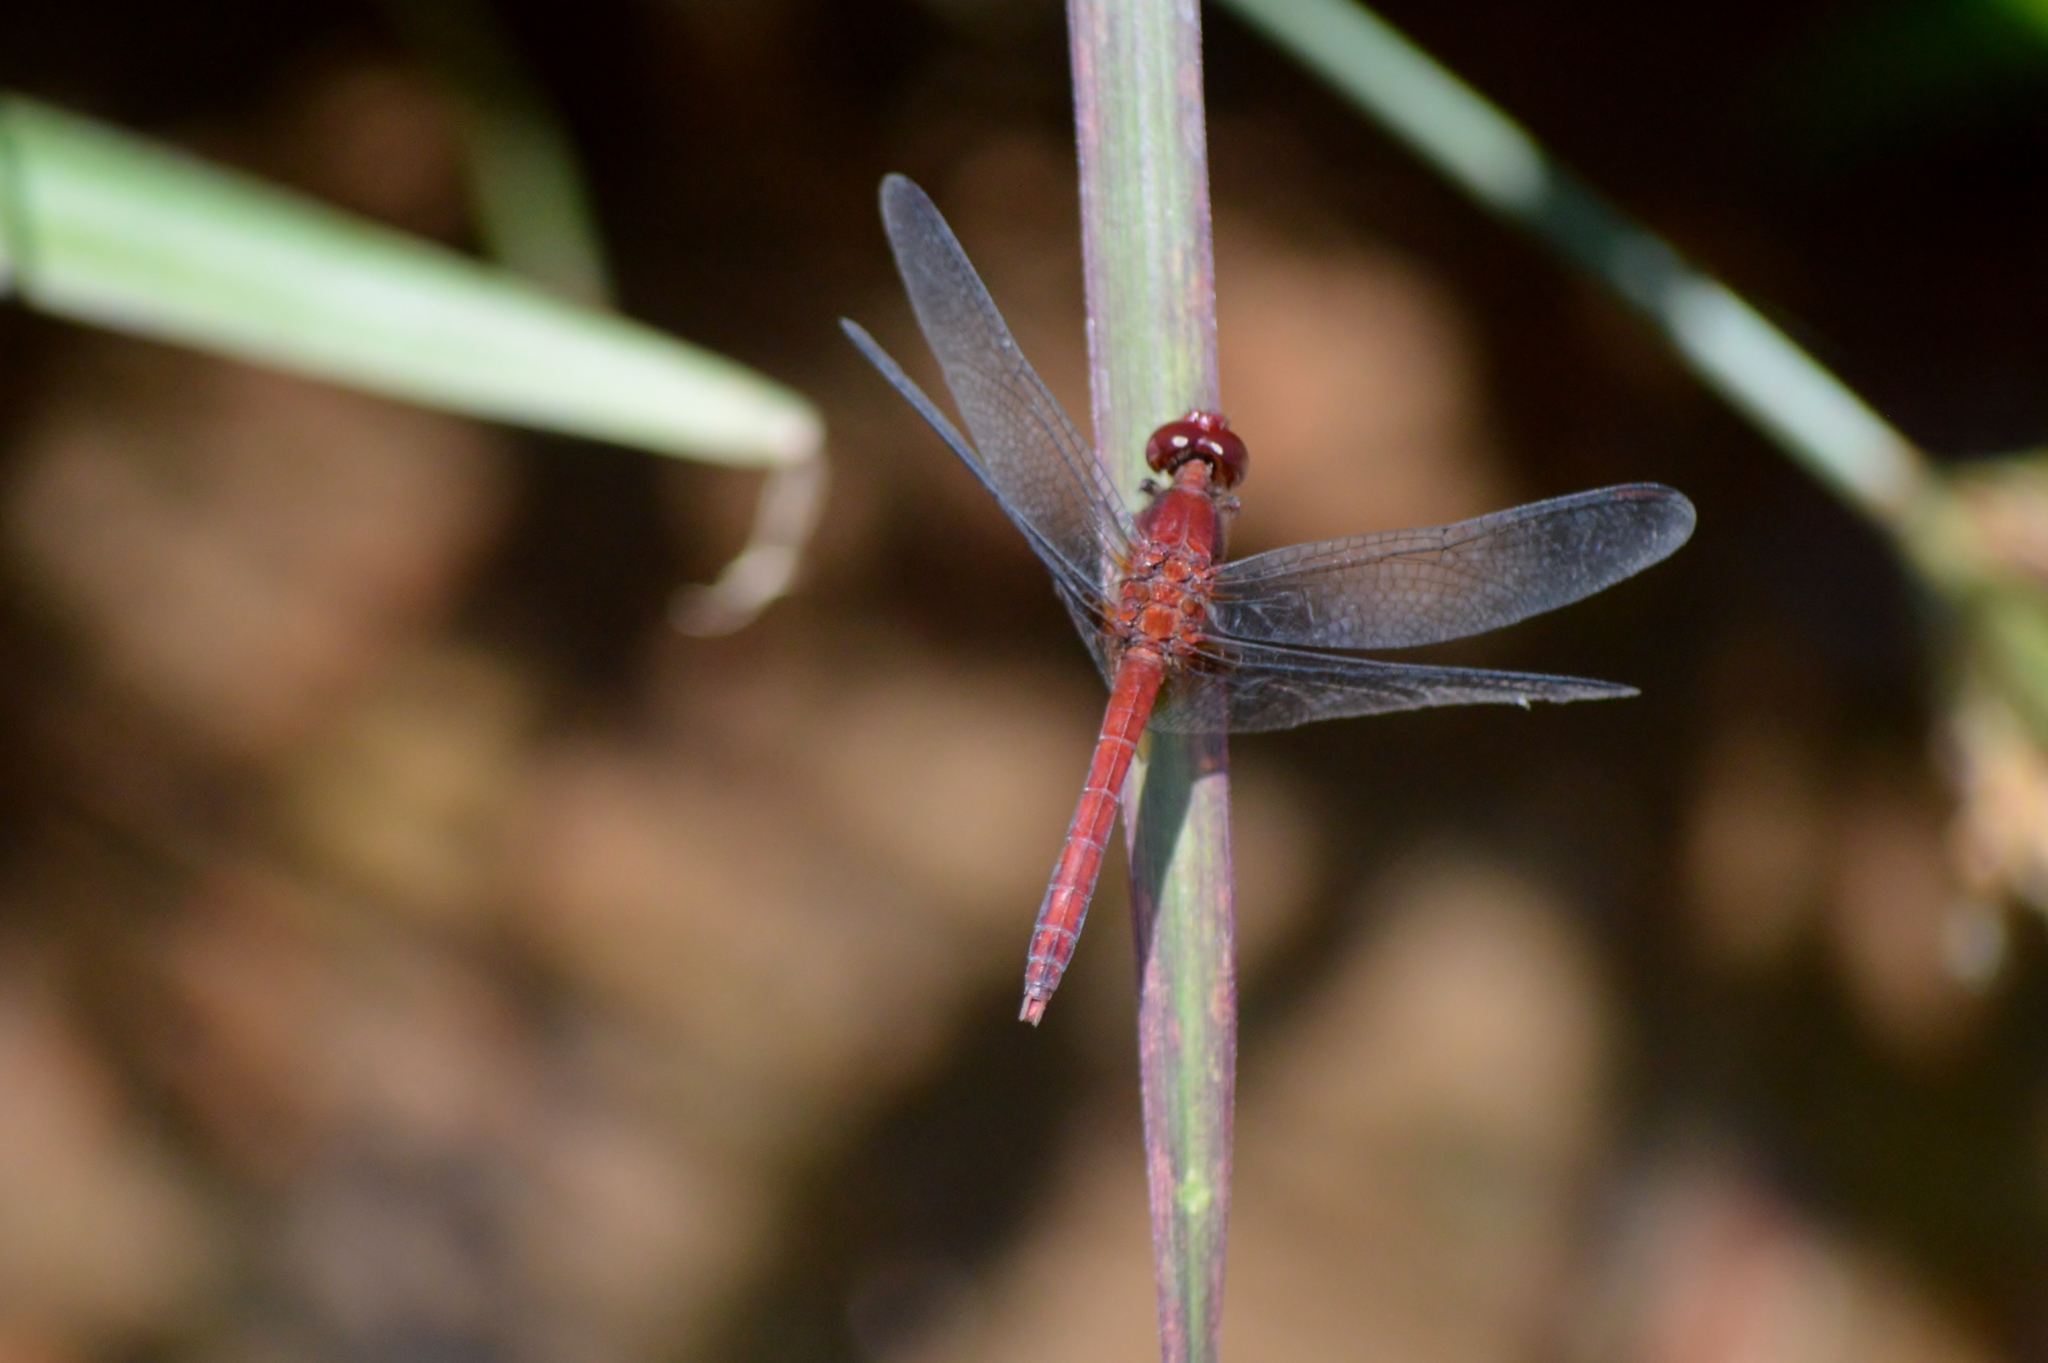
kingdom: Animalia
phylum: Arthropoda
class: Insecta
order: Odonata
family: Libellulidae
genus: Erythrodiplax
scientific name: Erythrodiplax famula
